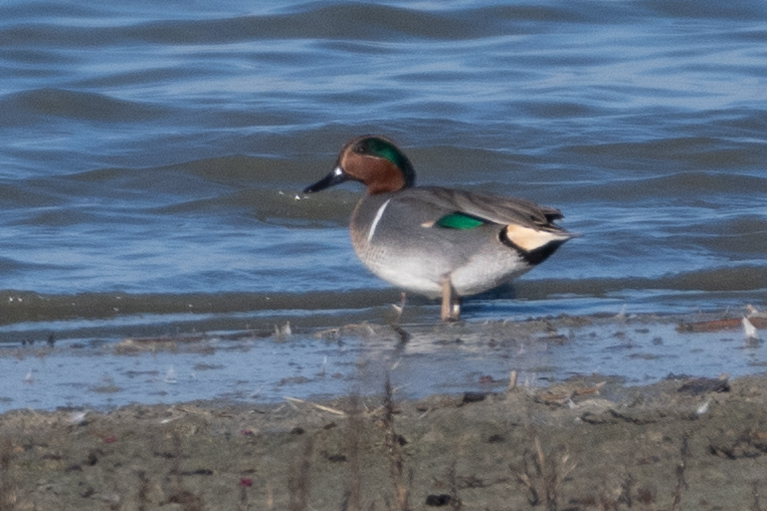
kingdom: Animalia
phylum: Chordata
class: Aves
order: Anseriformes
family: Anatidae
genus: Anas
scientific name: Anas crecca
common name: Eurasian teal
